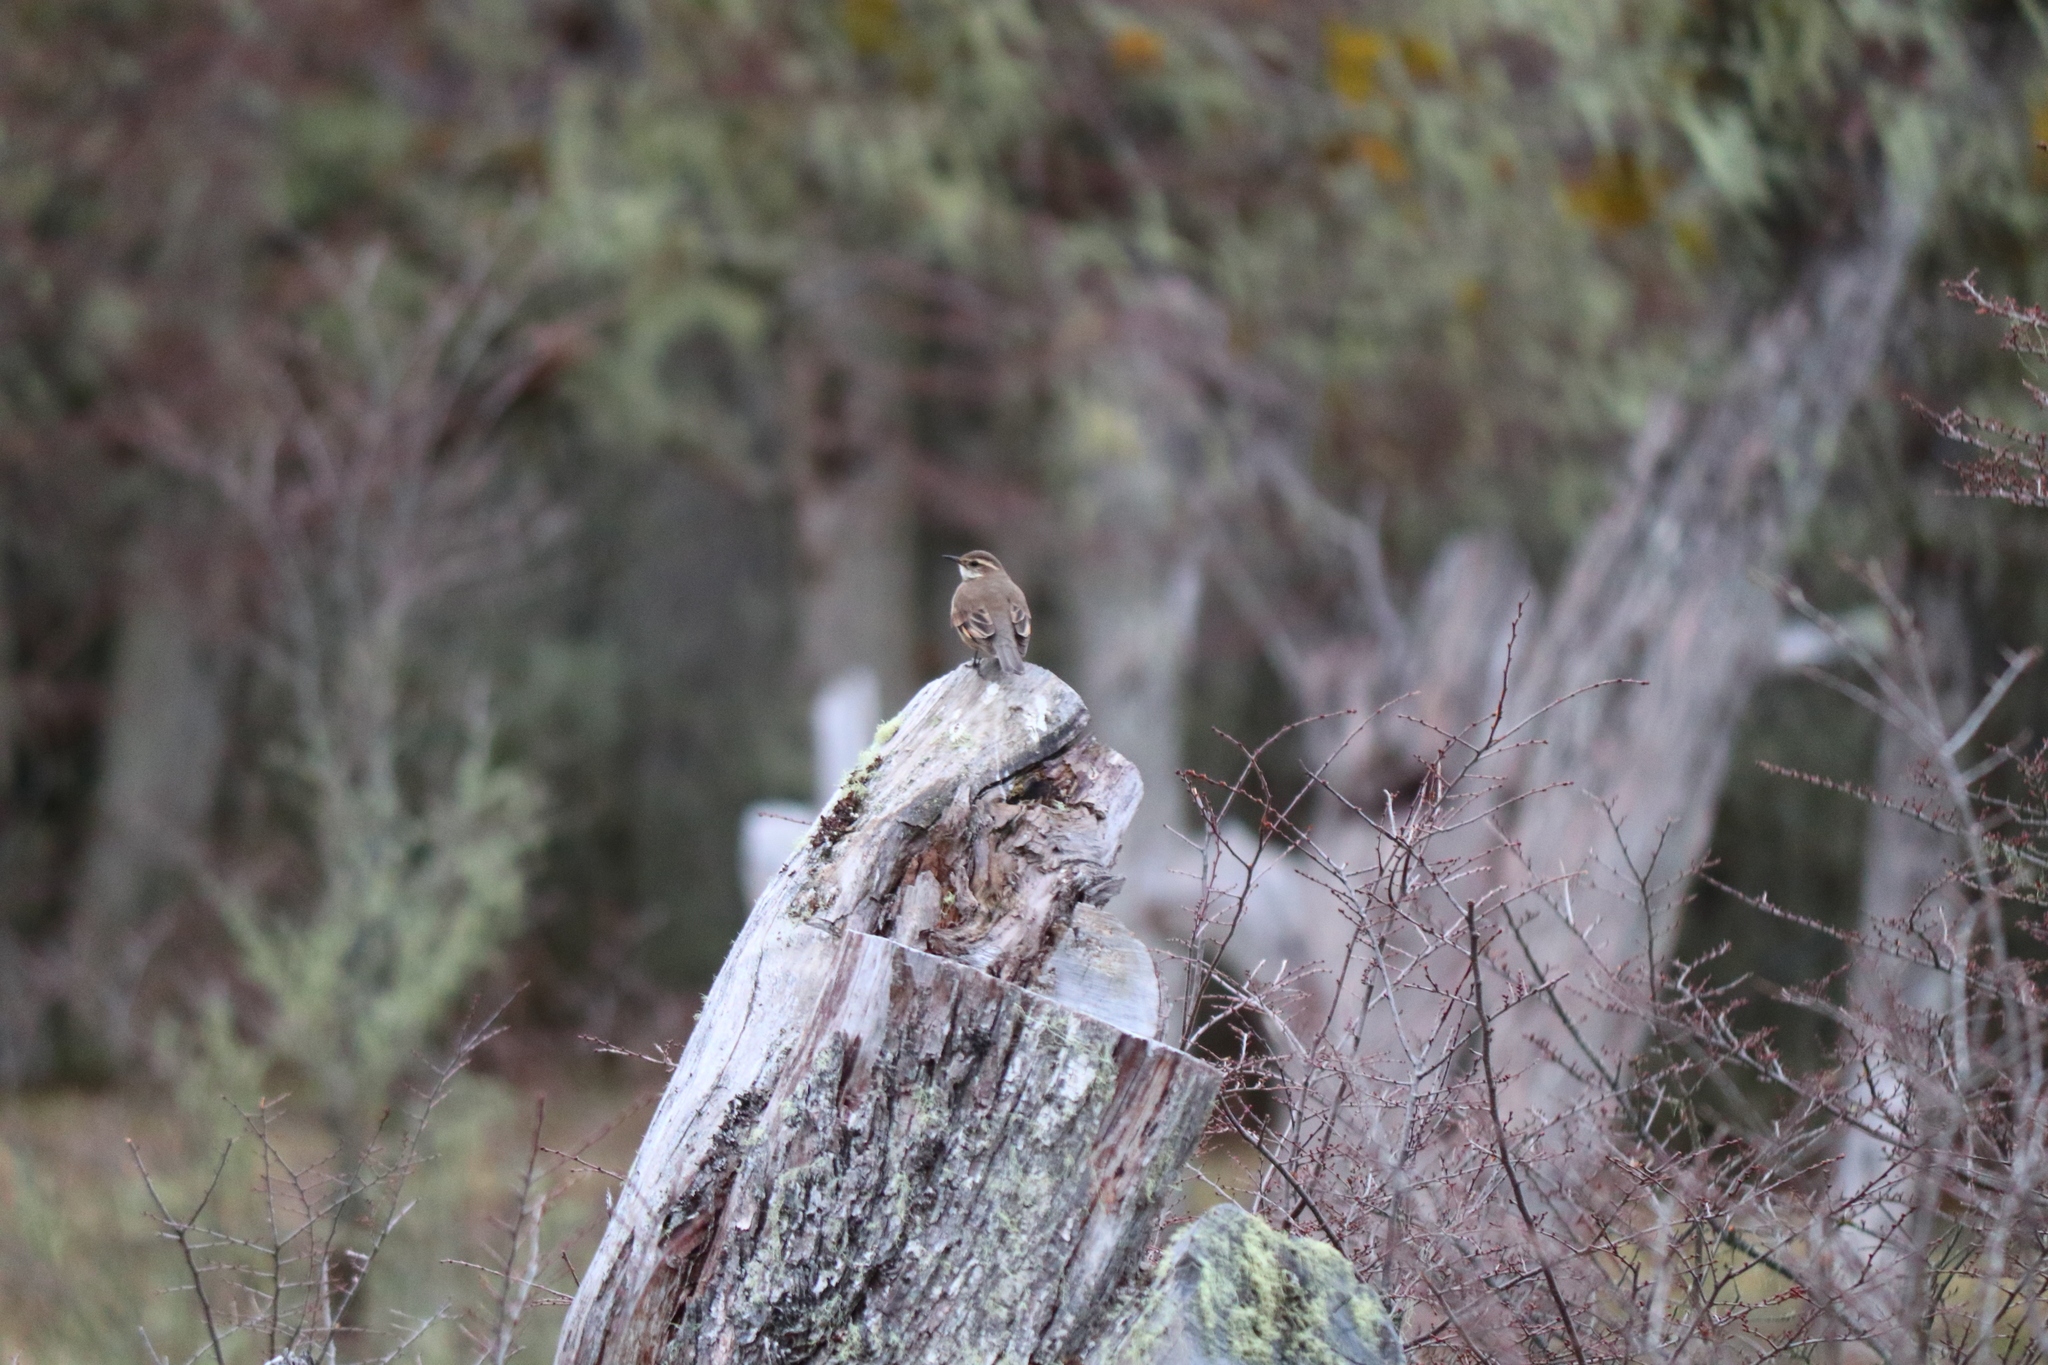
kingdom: Animalia
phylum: Chordata
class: Aves
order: Passeriformes
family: Furnariidae
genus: Cinclodes
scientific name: Cinclodes fuscus
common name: Buff-winged cinclodes
